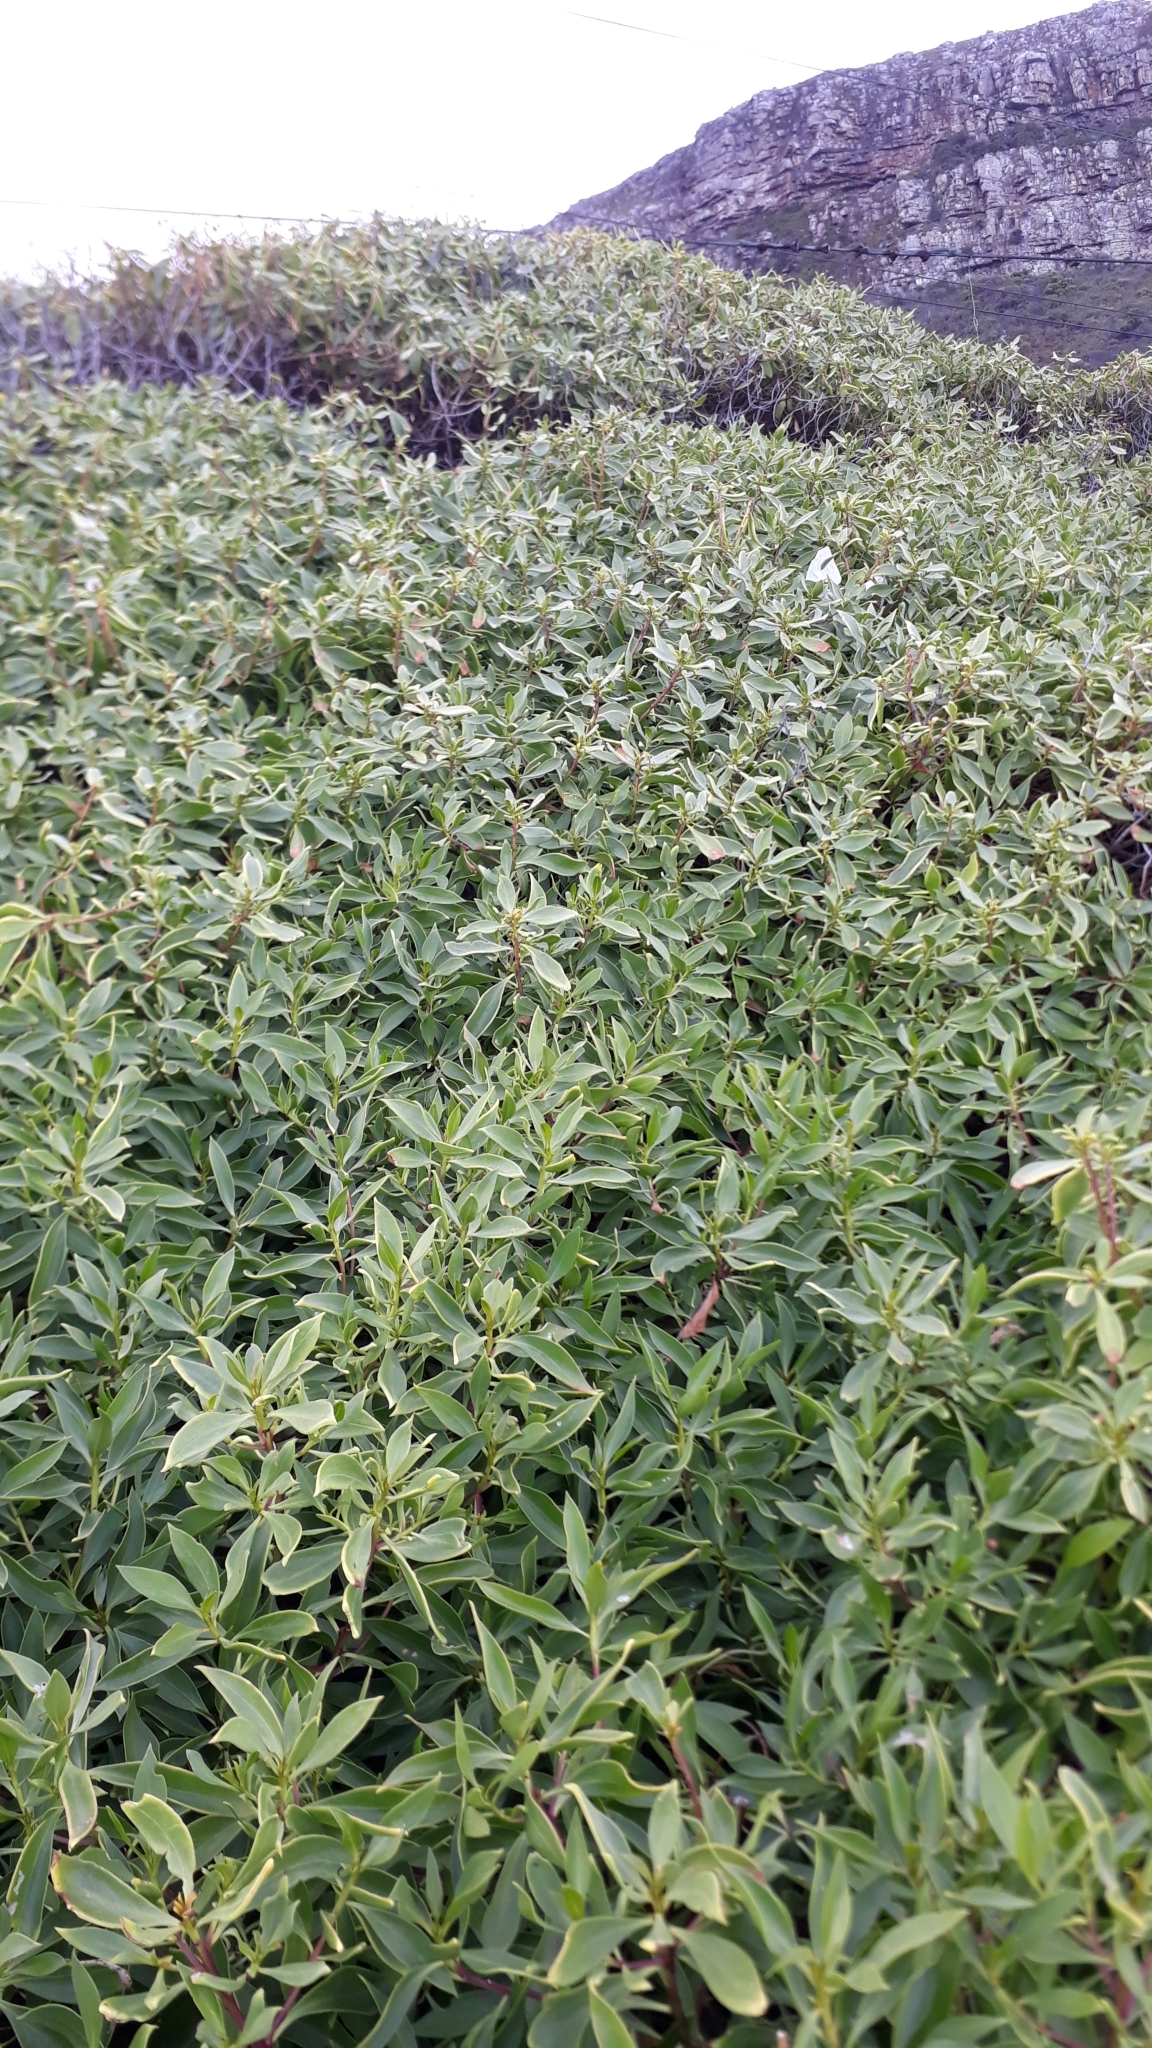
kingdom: Plantae
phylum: Tracheophyta
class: Magnoliopsida
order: Lamiales
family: Scrophulariaceae
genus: Myoporum
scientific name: Myoporum montanum
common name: Waterbush
